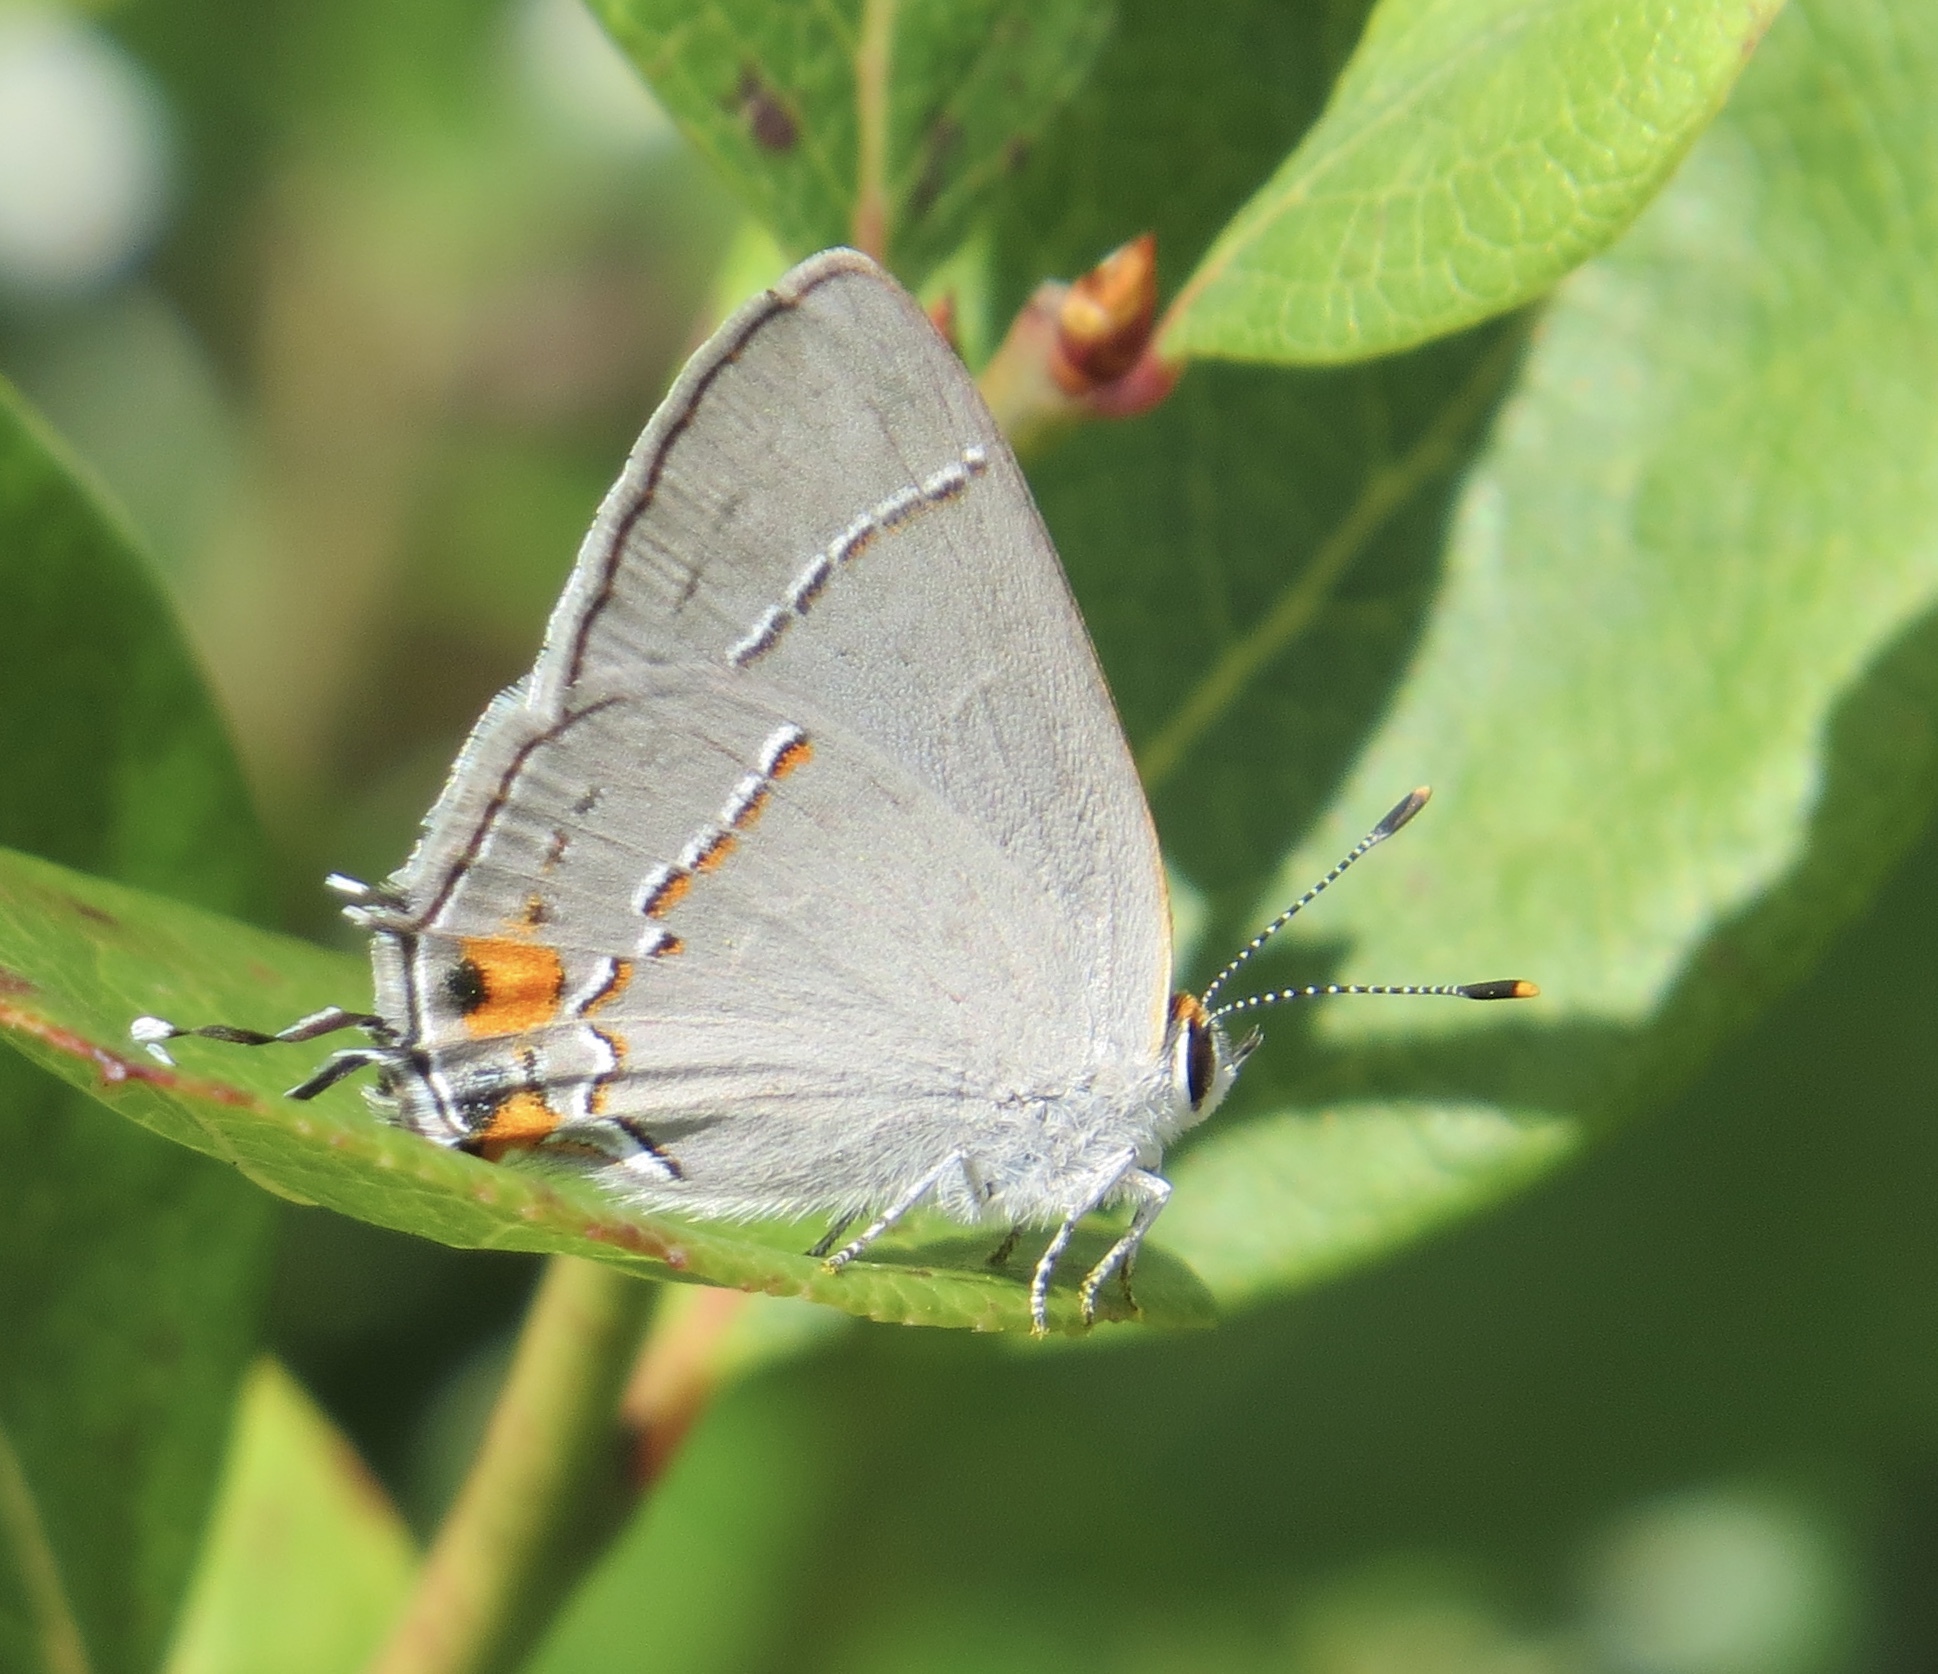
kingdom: Animalia
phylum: Arthropoda
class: Insecta
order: Lepidoptera
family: Lycaenidae
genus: Strymon
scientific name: Strymon melinus
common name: Gray hairstreak
